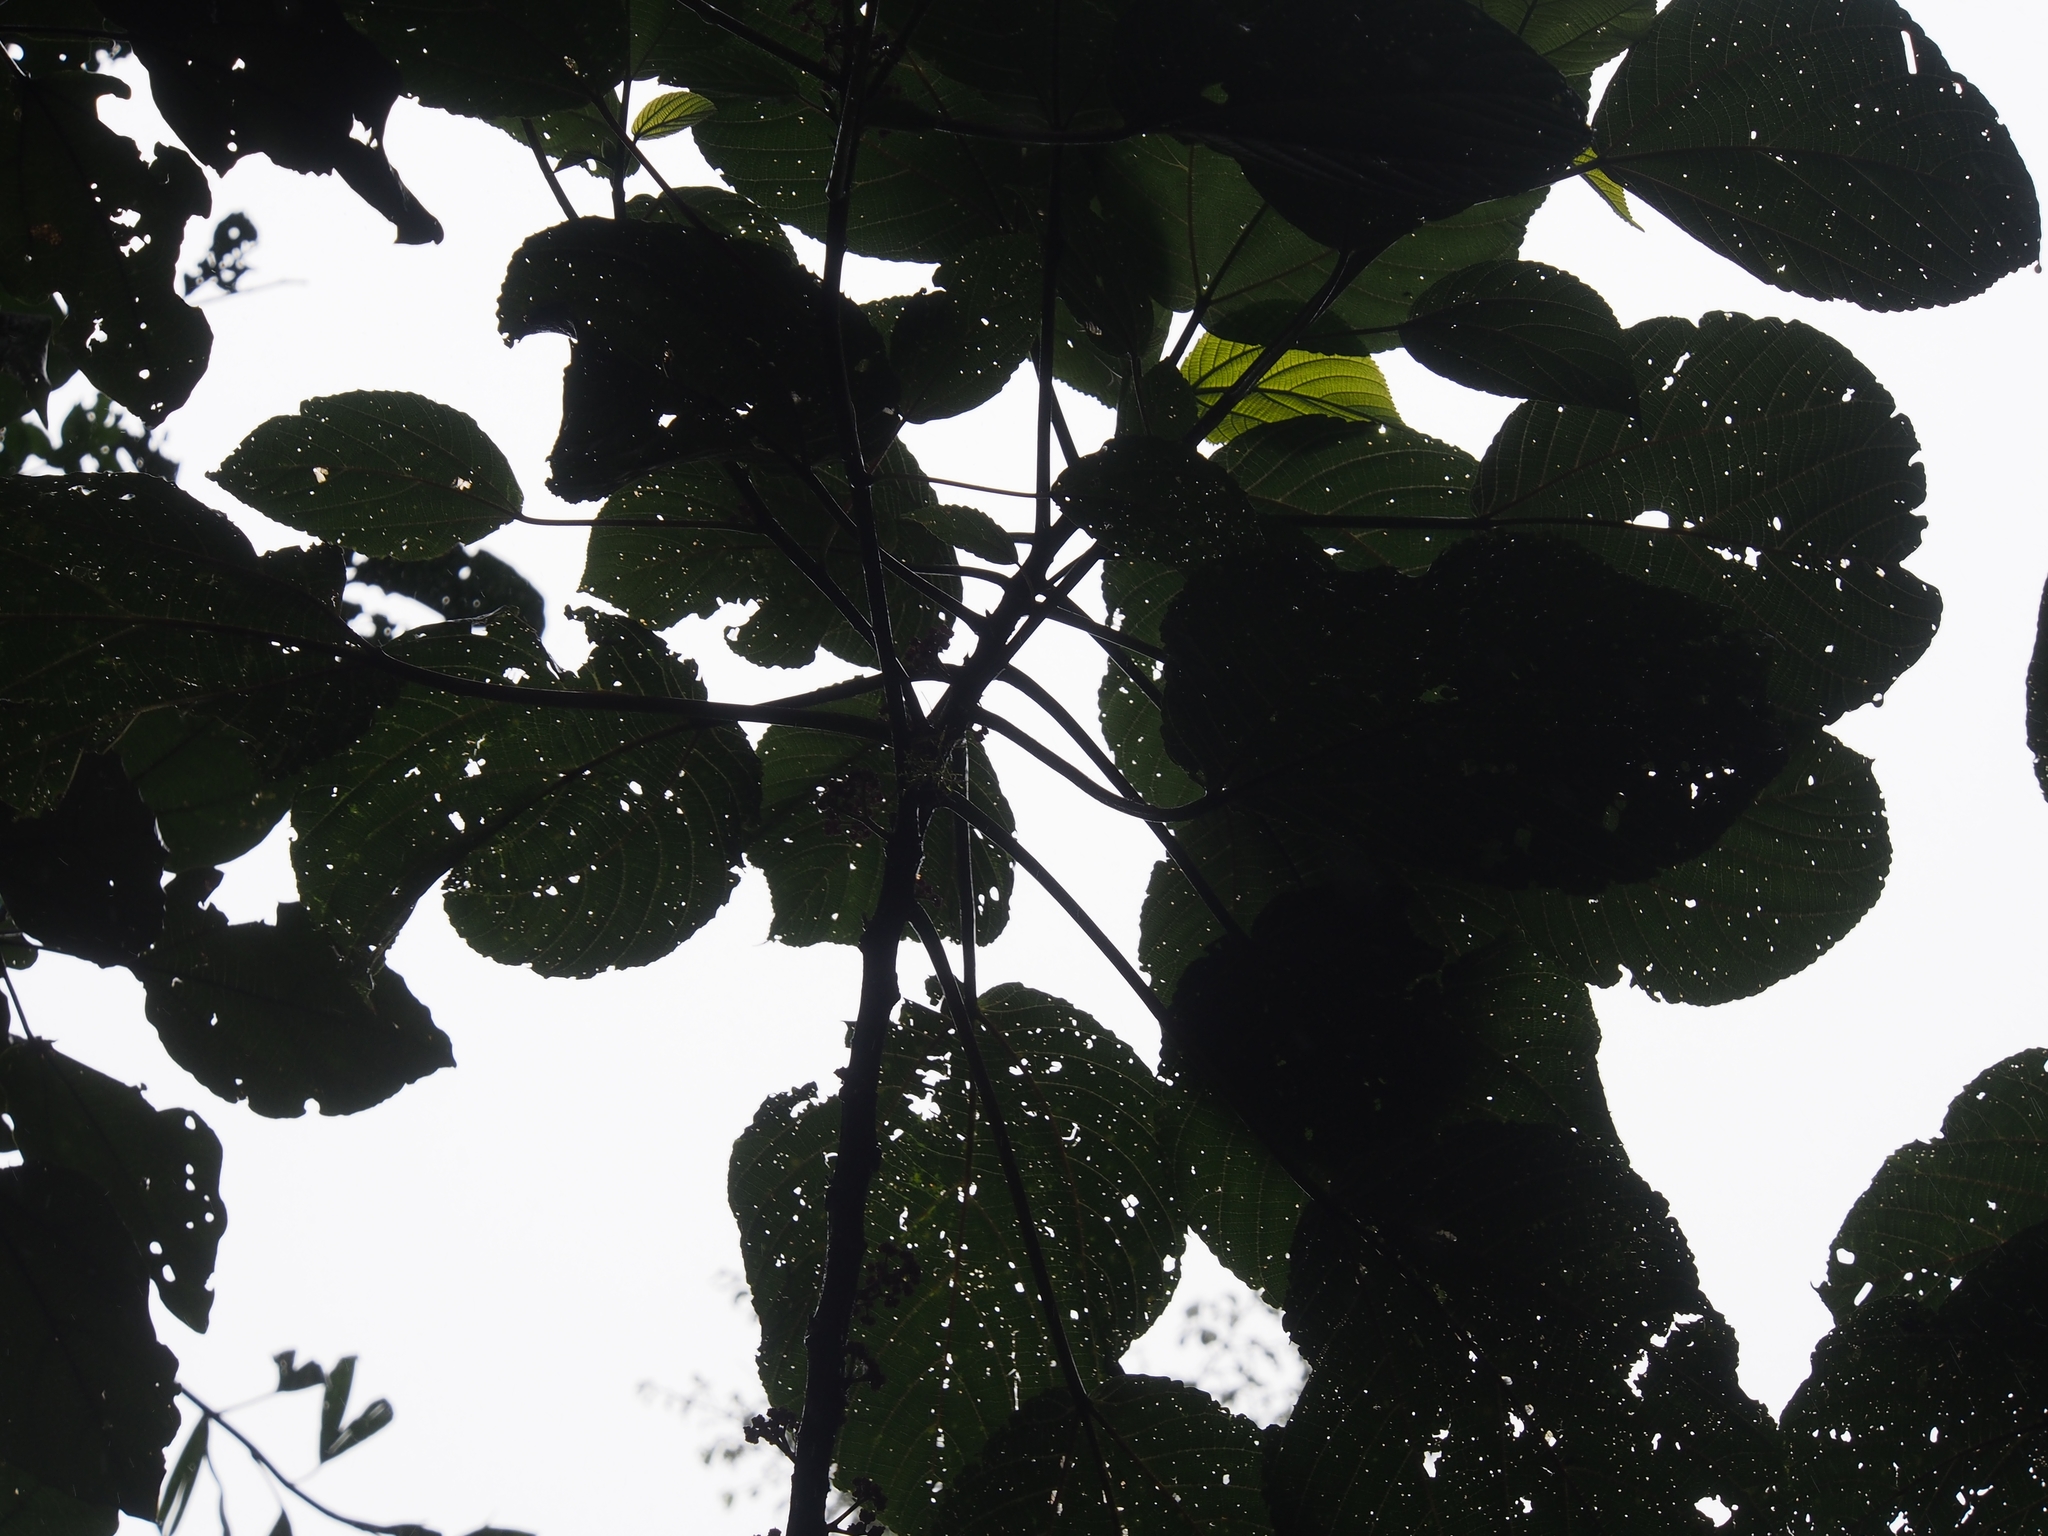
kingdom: Plantae
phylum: Tracheophyta
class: Magnoliopsida
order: Rosales
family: Urticaceae
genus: Urera
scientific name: Urera caracasana
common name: Flameberry
